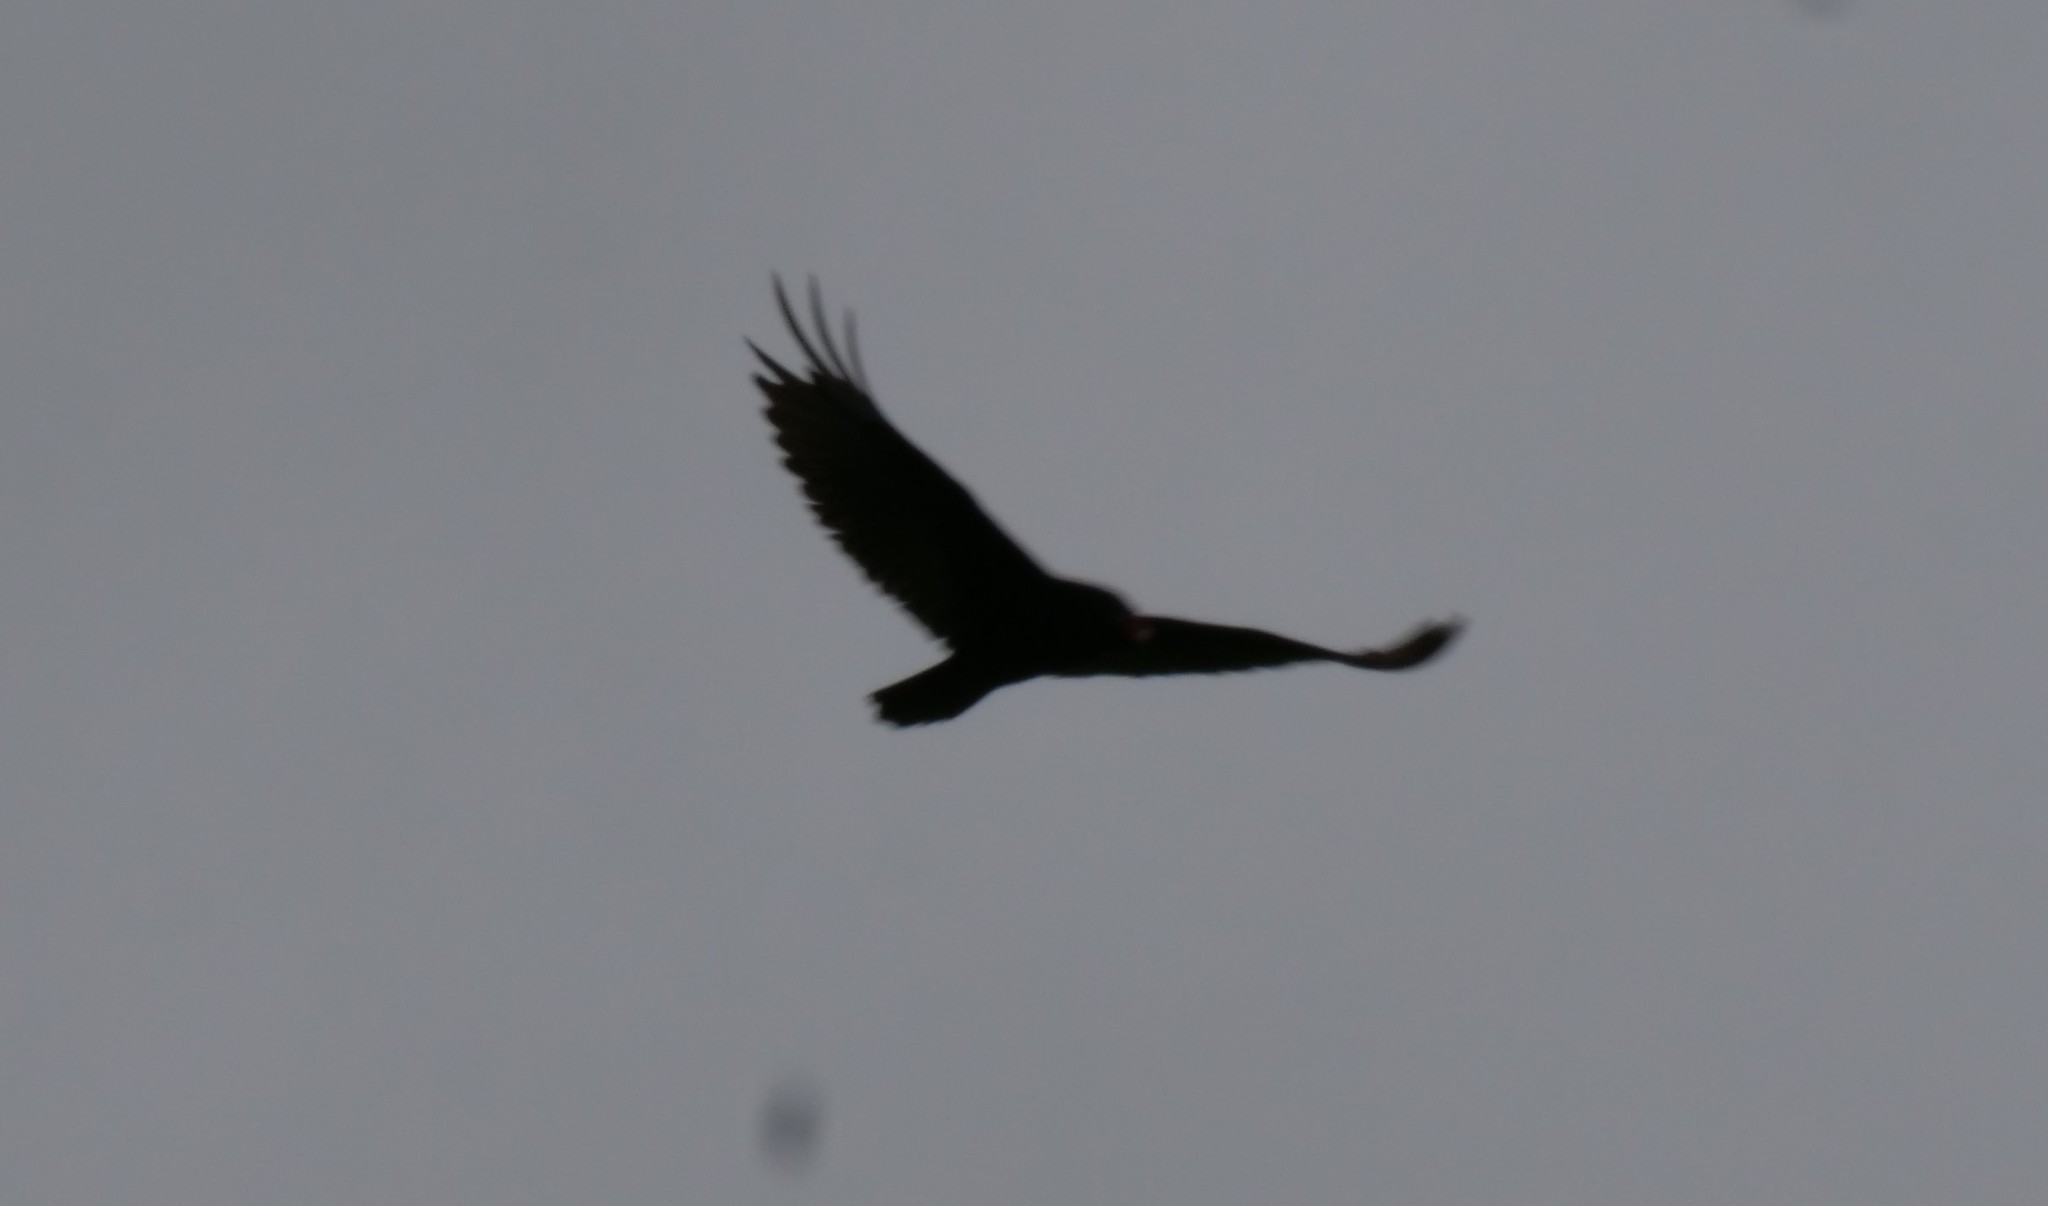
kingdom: Animalia
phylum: Chordata
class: Aves
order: Accipitriformes
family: Cathartidae
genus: Cathartes
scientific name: Cathartes aura
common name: Turkey vulture
